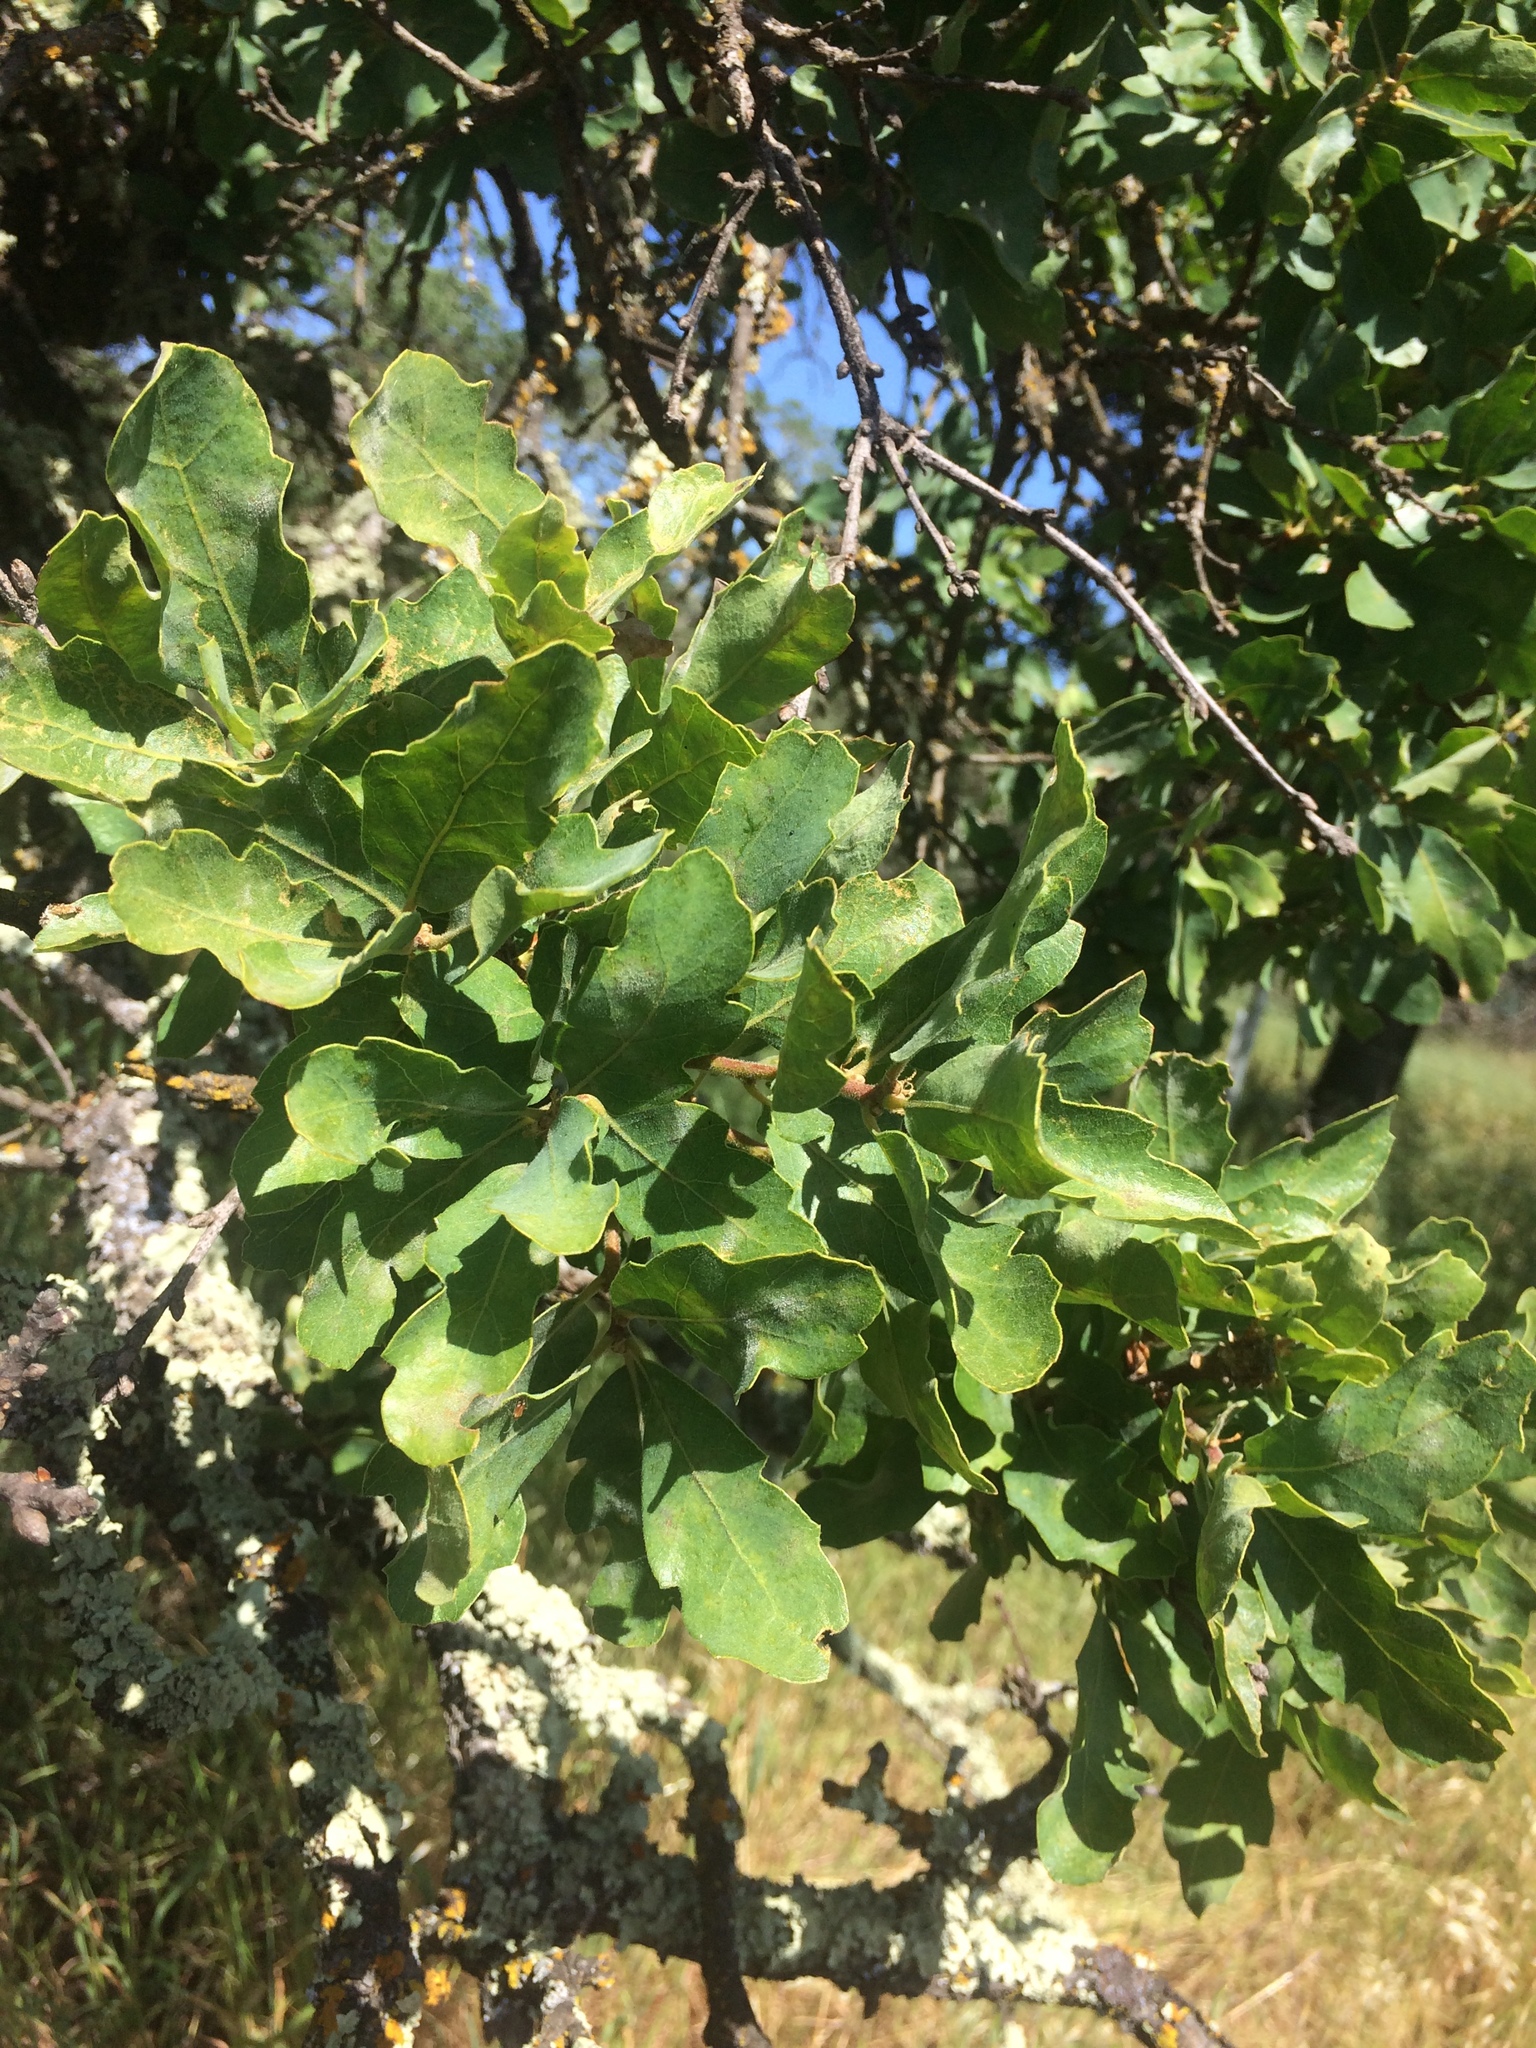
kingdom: Plantae
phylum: Tracheophyta
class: Magnoliopsida
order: Fagales
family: Fagaceae
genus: Quercus
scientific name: Quercus douglasii
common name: Blue oak
